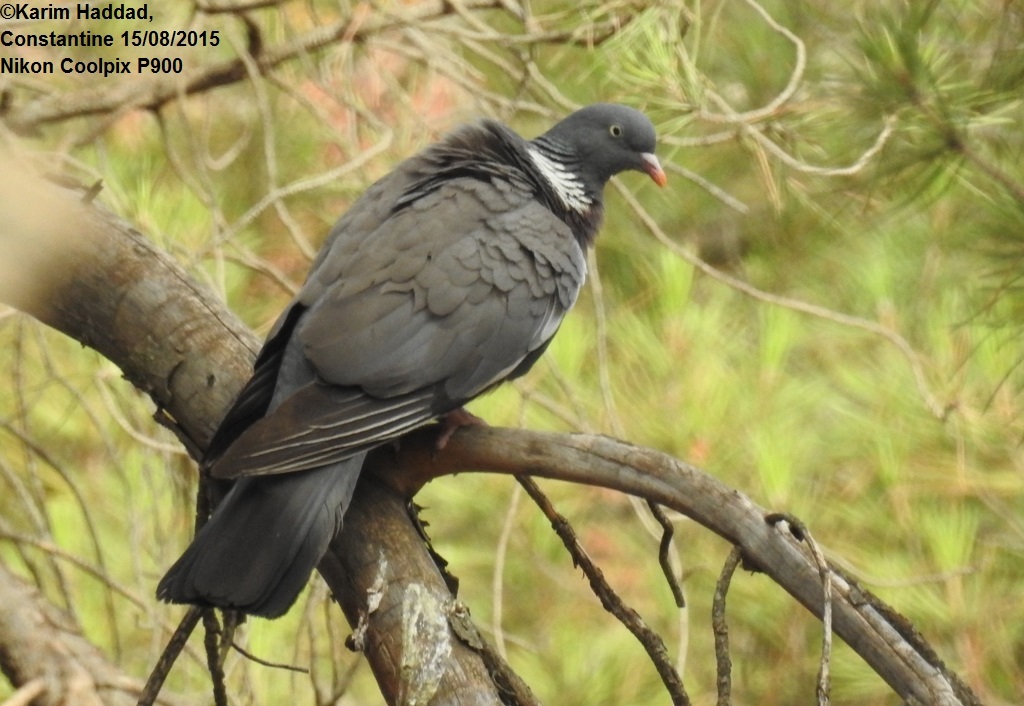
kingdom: Animalia
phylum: Chordata
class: Aves
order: Columbiformes
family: Columbidae
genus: Columba
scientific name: Columba palumbus
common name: Common wood pigeon
